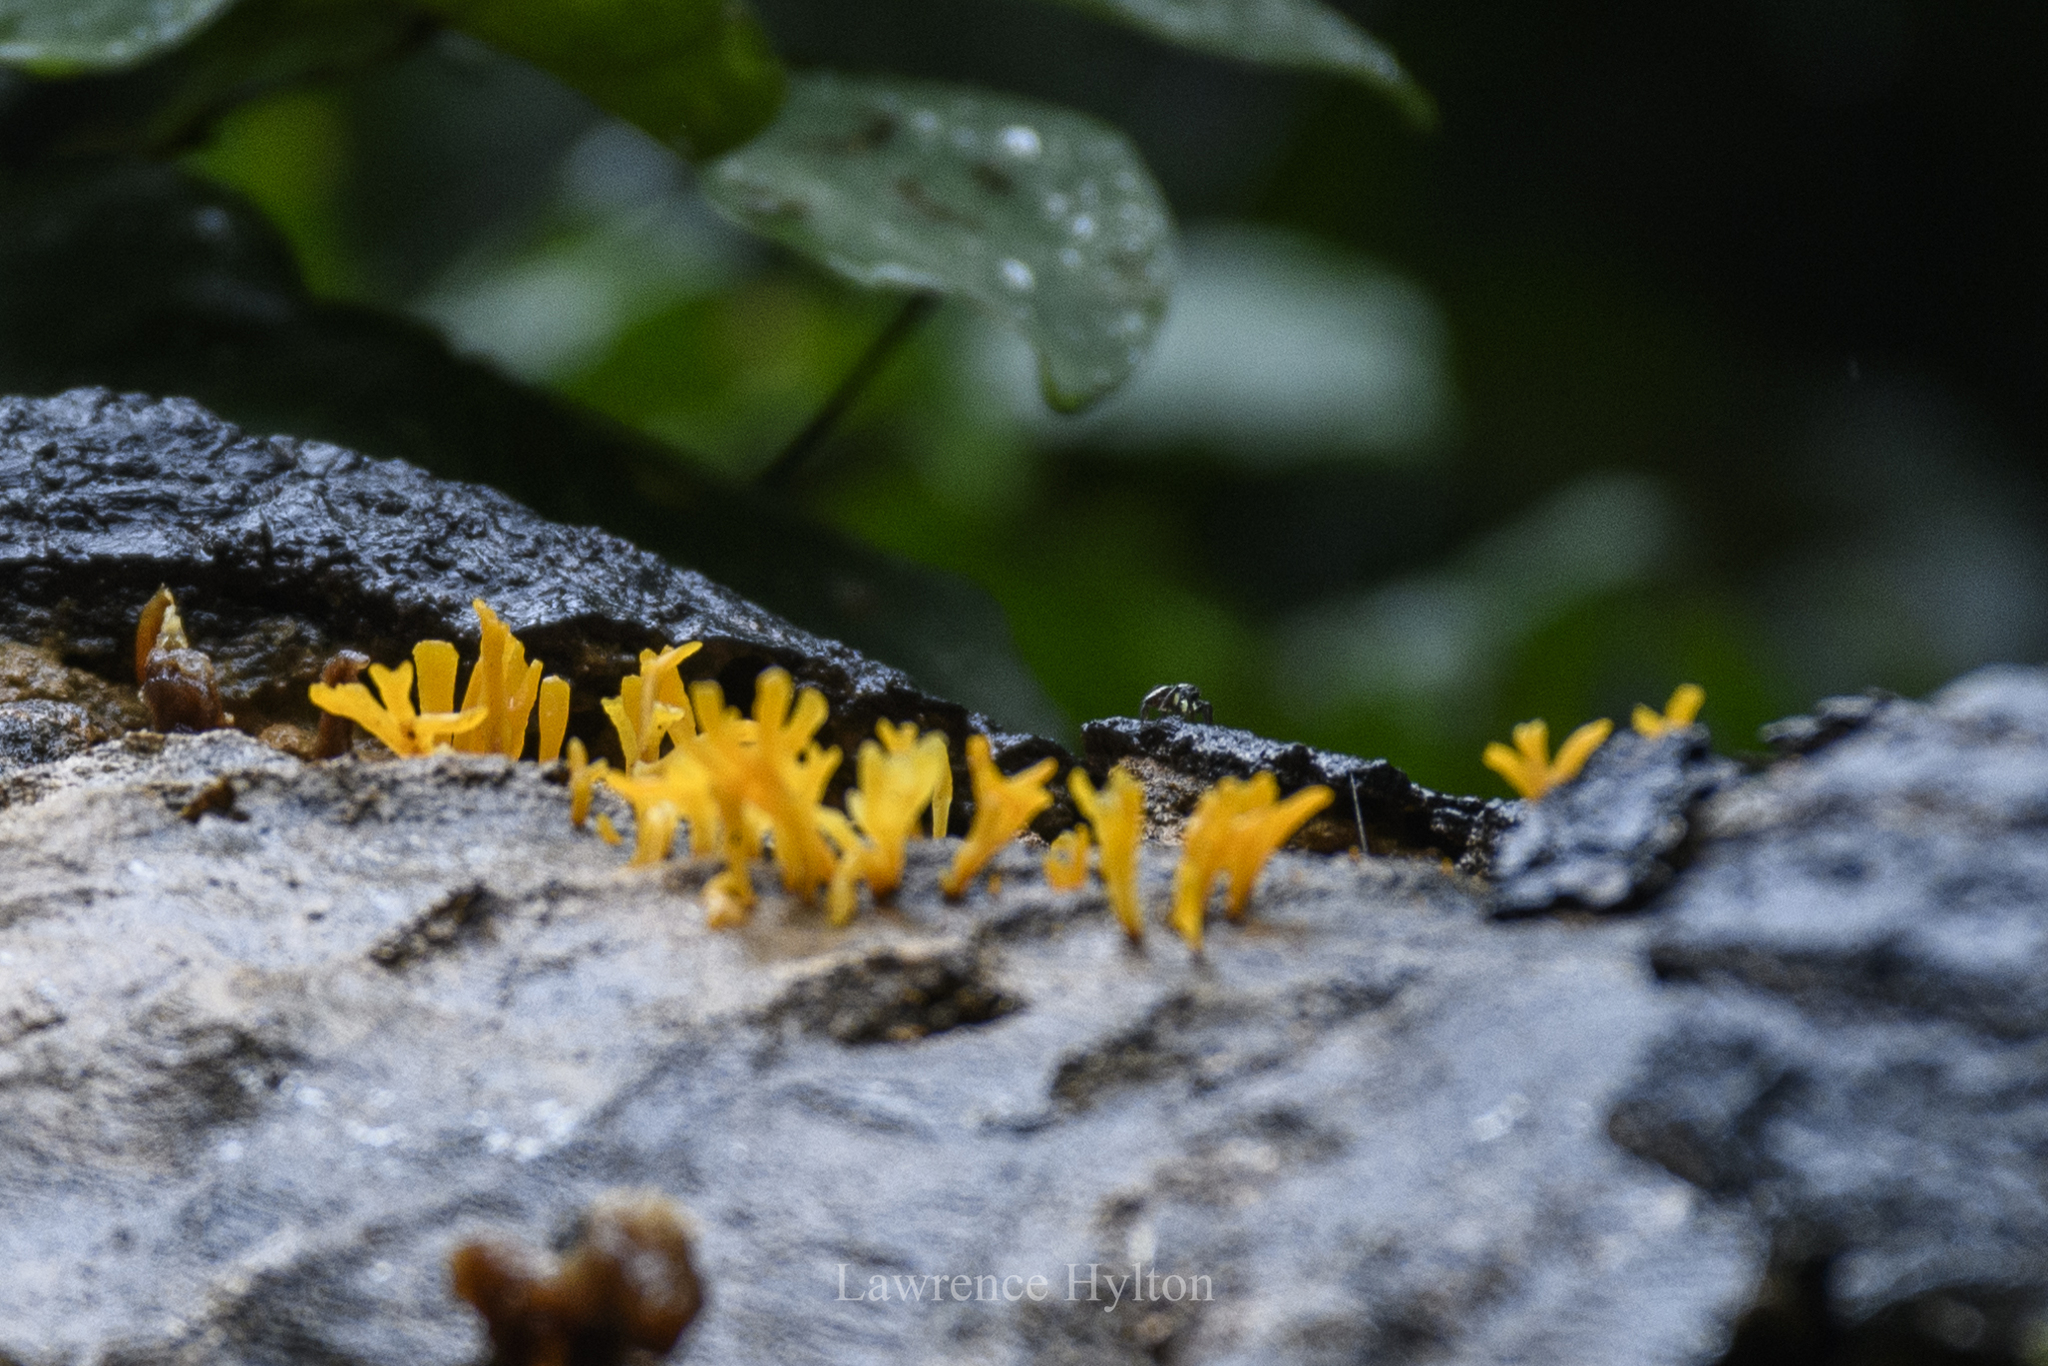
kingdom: Fungi
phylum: Basidiomycota
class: Dacrymycetes
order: Dacrymycetales
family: Dacrymycetaceae
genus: Dacrymyces
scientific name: Dacrymyces spathularius
